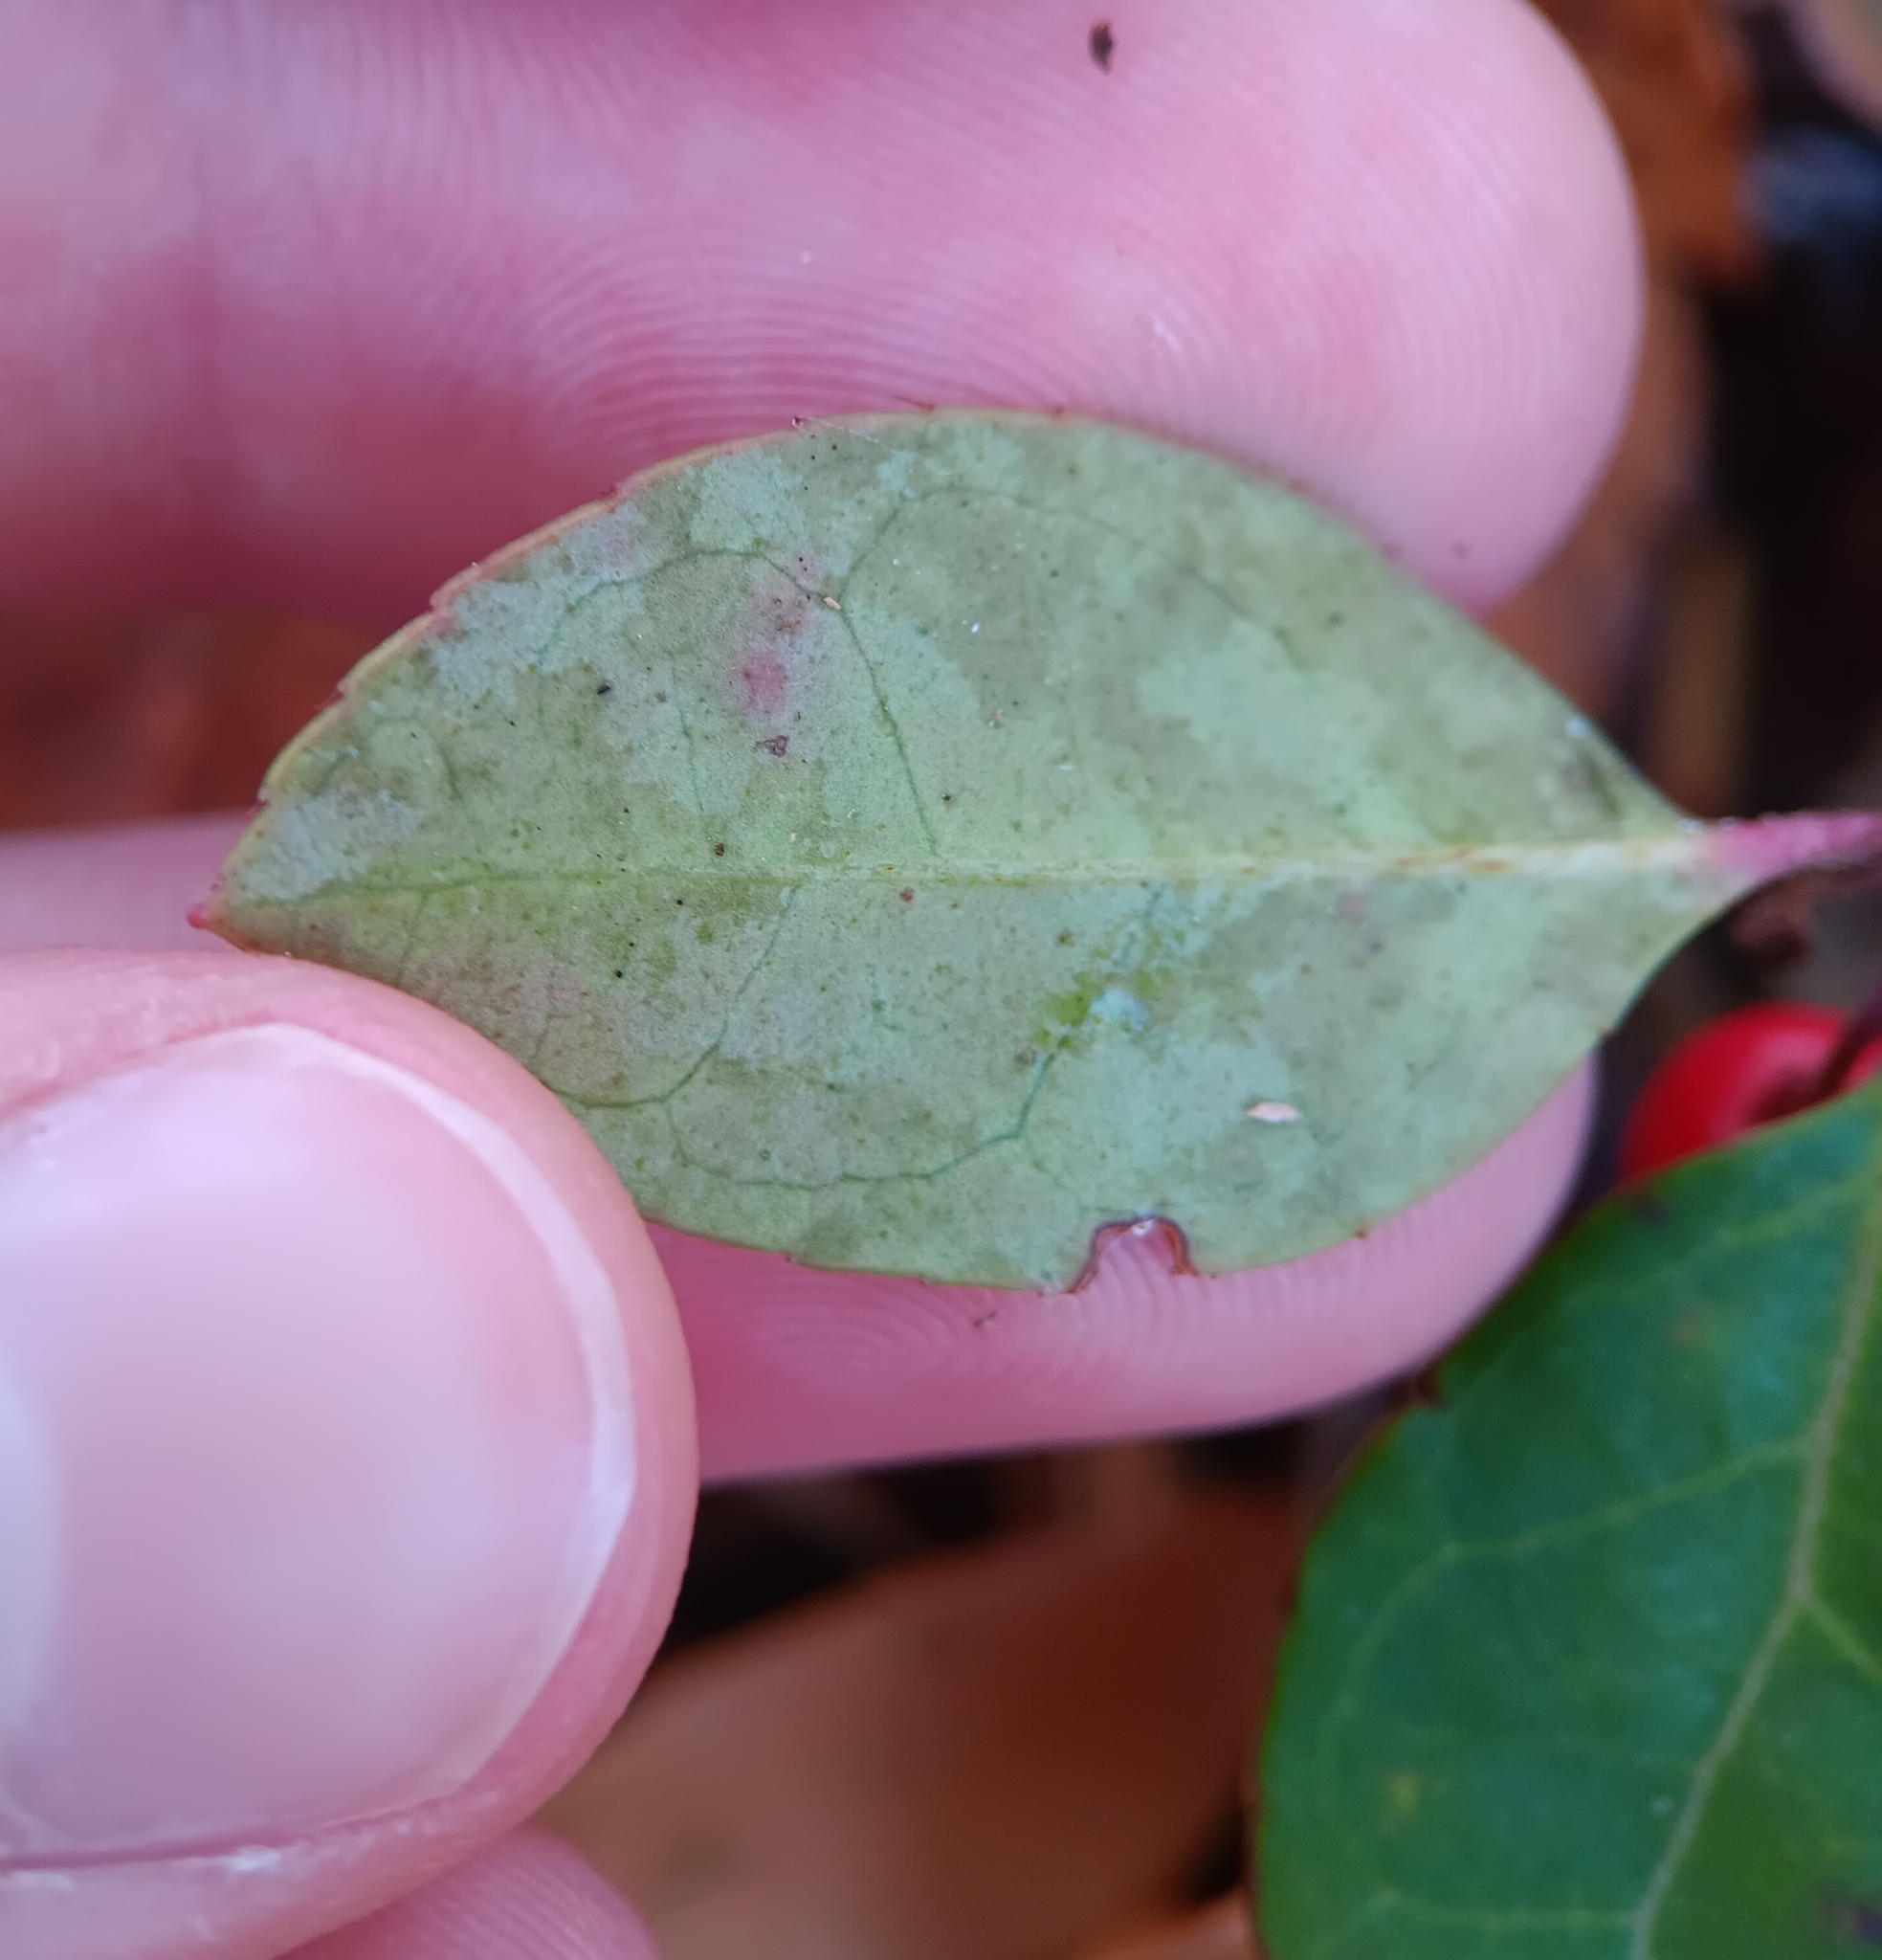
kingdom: Plantae
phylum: Tracheophyta
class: Magnoliopsida
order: Ericales
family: Ericaceae
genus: Gaultheria
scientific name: Gaultheria procumbens
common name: Checkerberry
